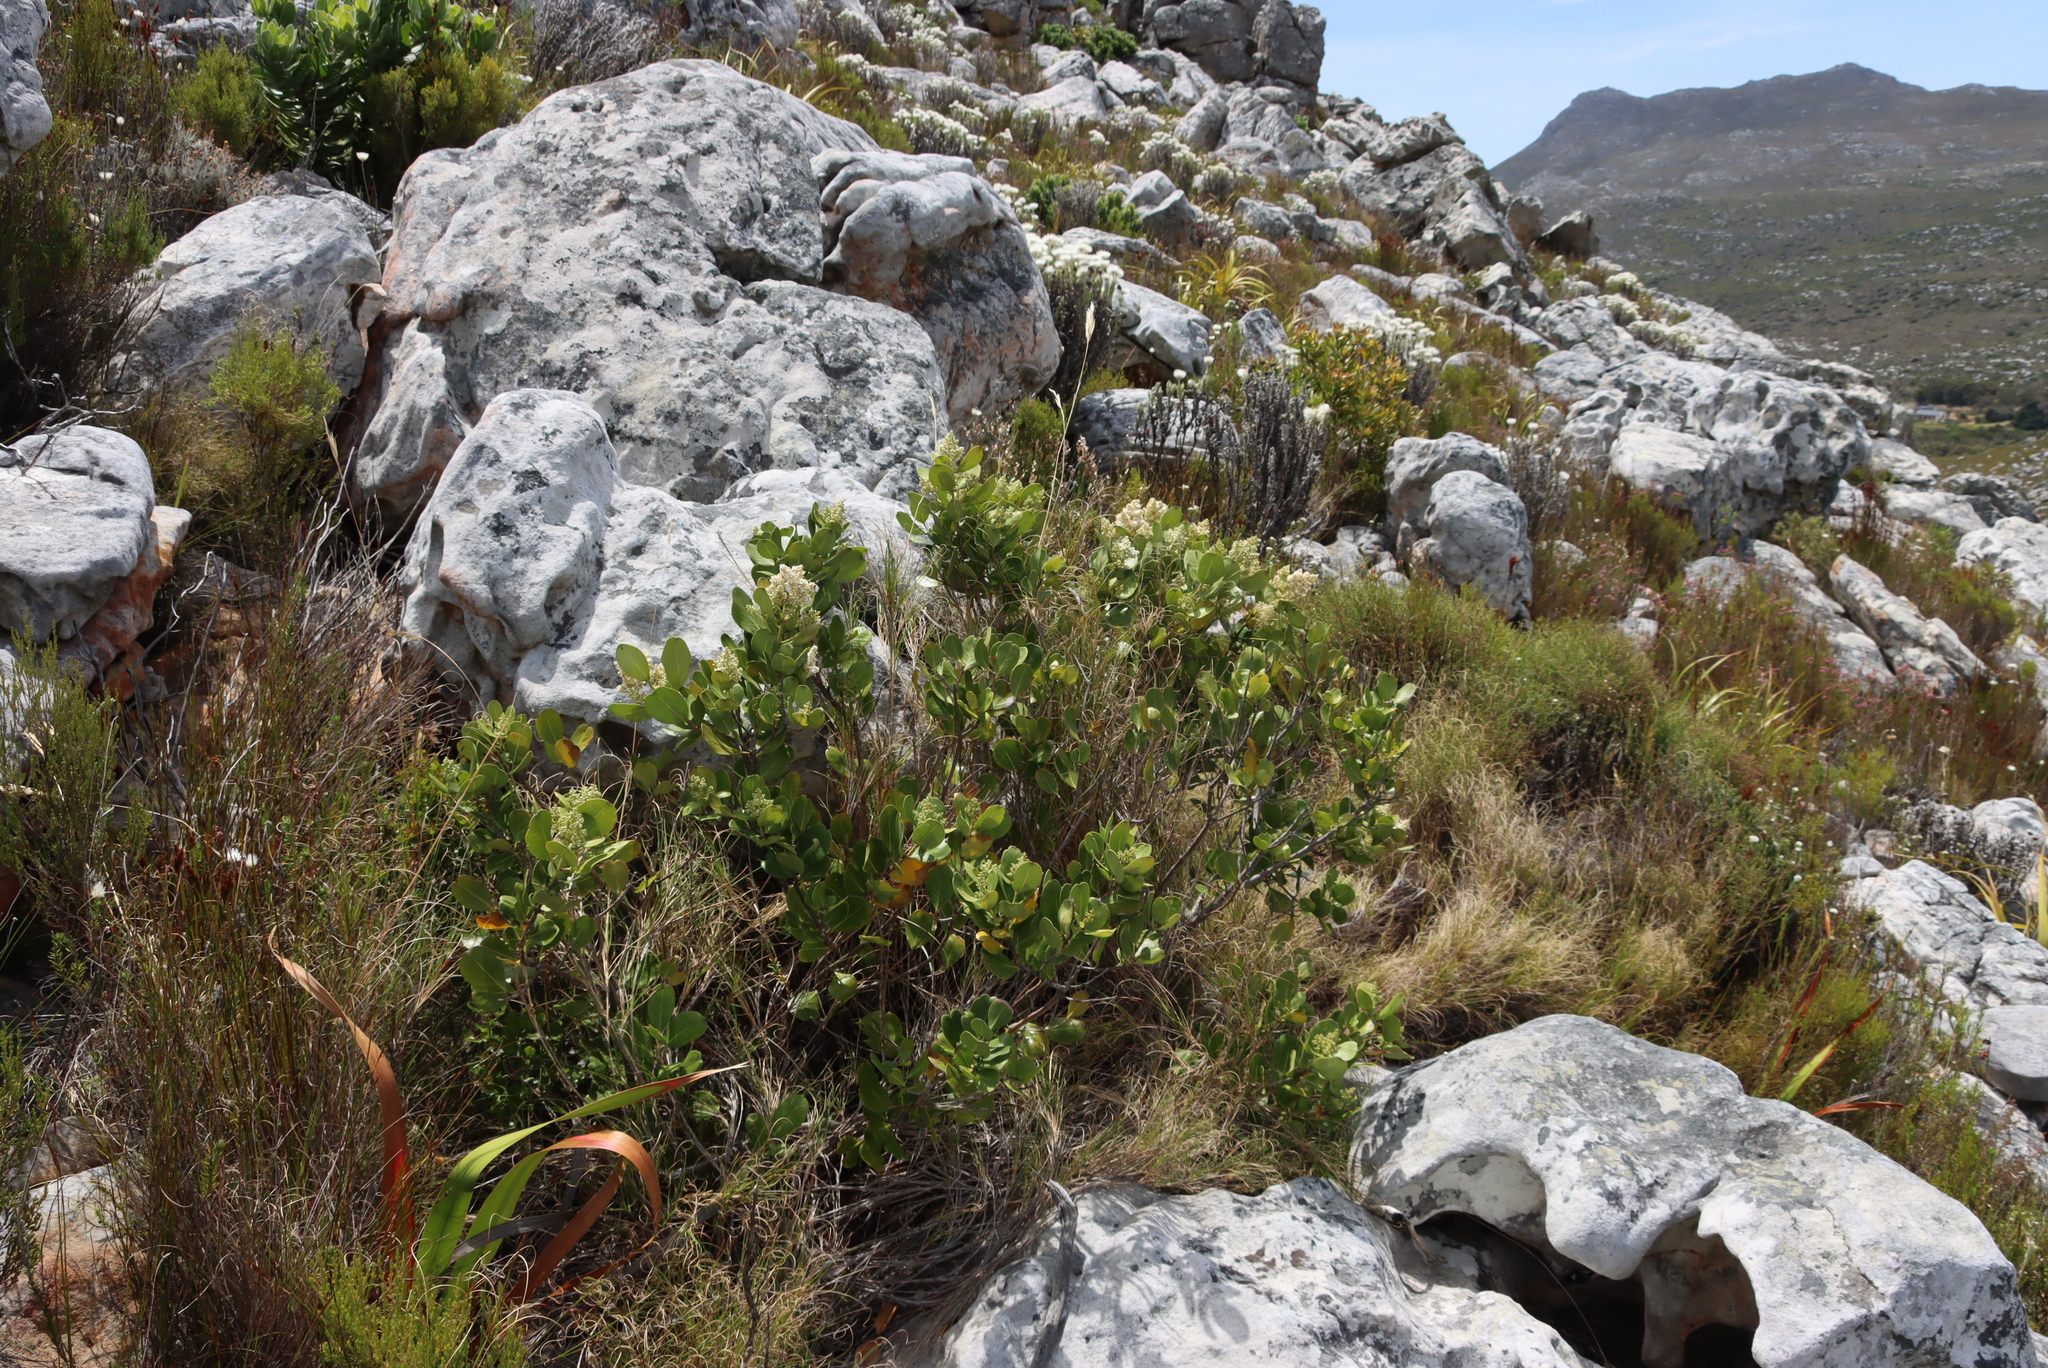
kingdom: Plantae
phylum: Tracheophyta
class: Magnoliopsida
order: Lamiales
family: Oleaceae
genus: Olea
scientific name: Olea capensis
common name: Black ironwood
